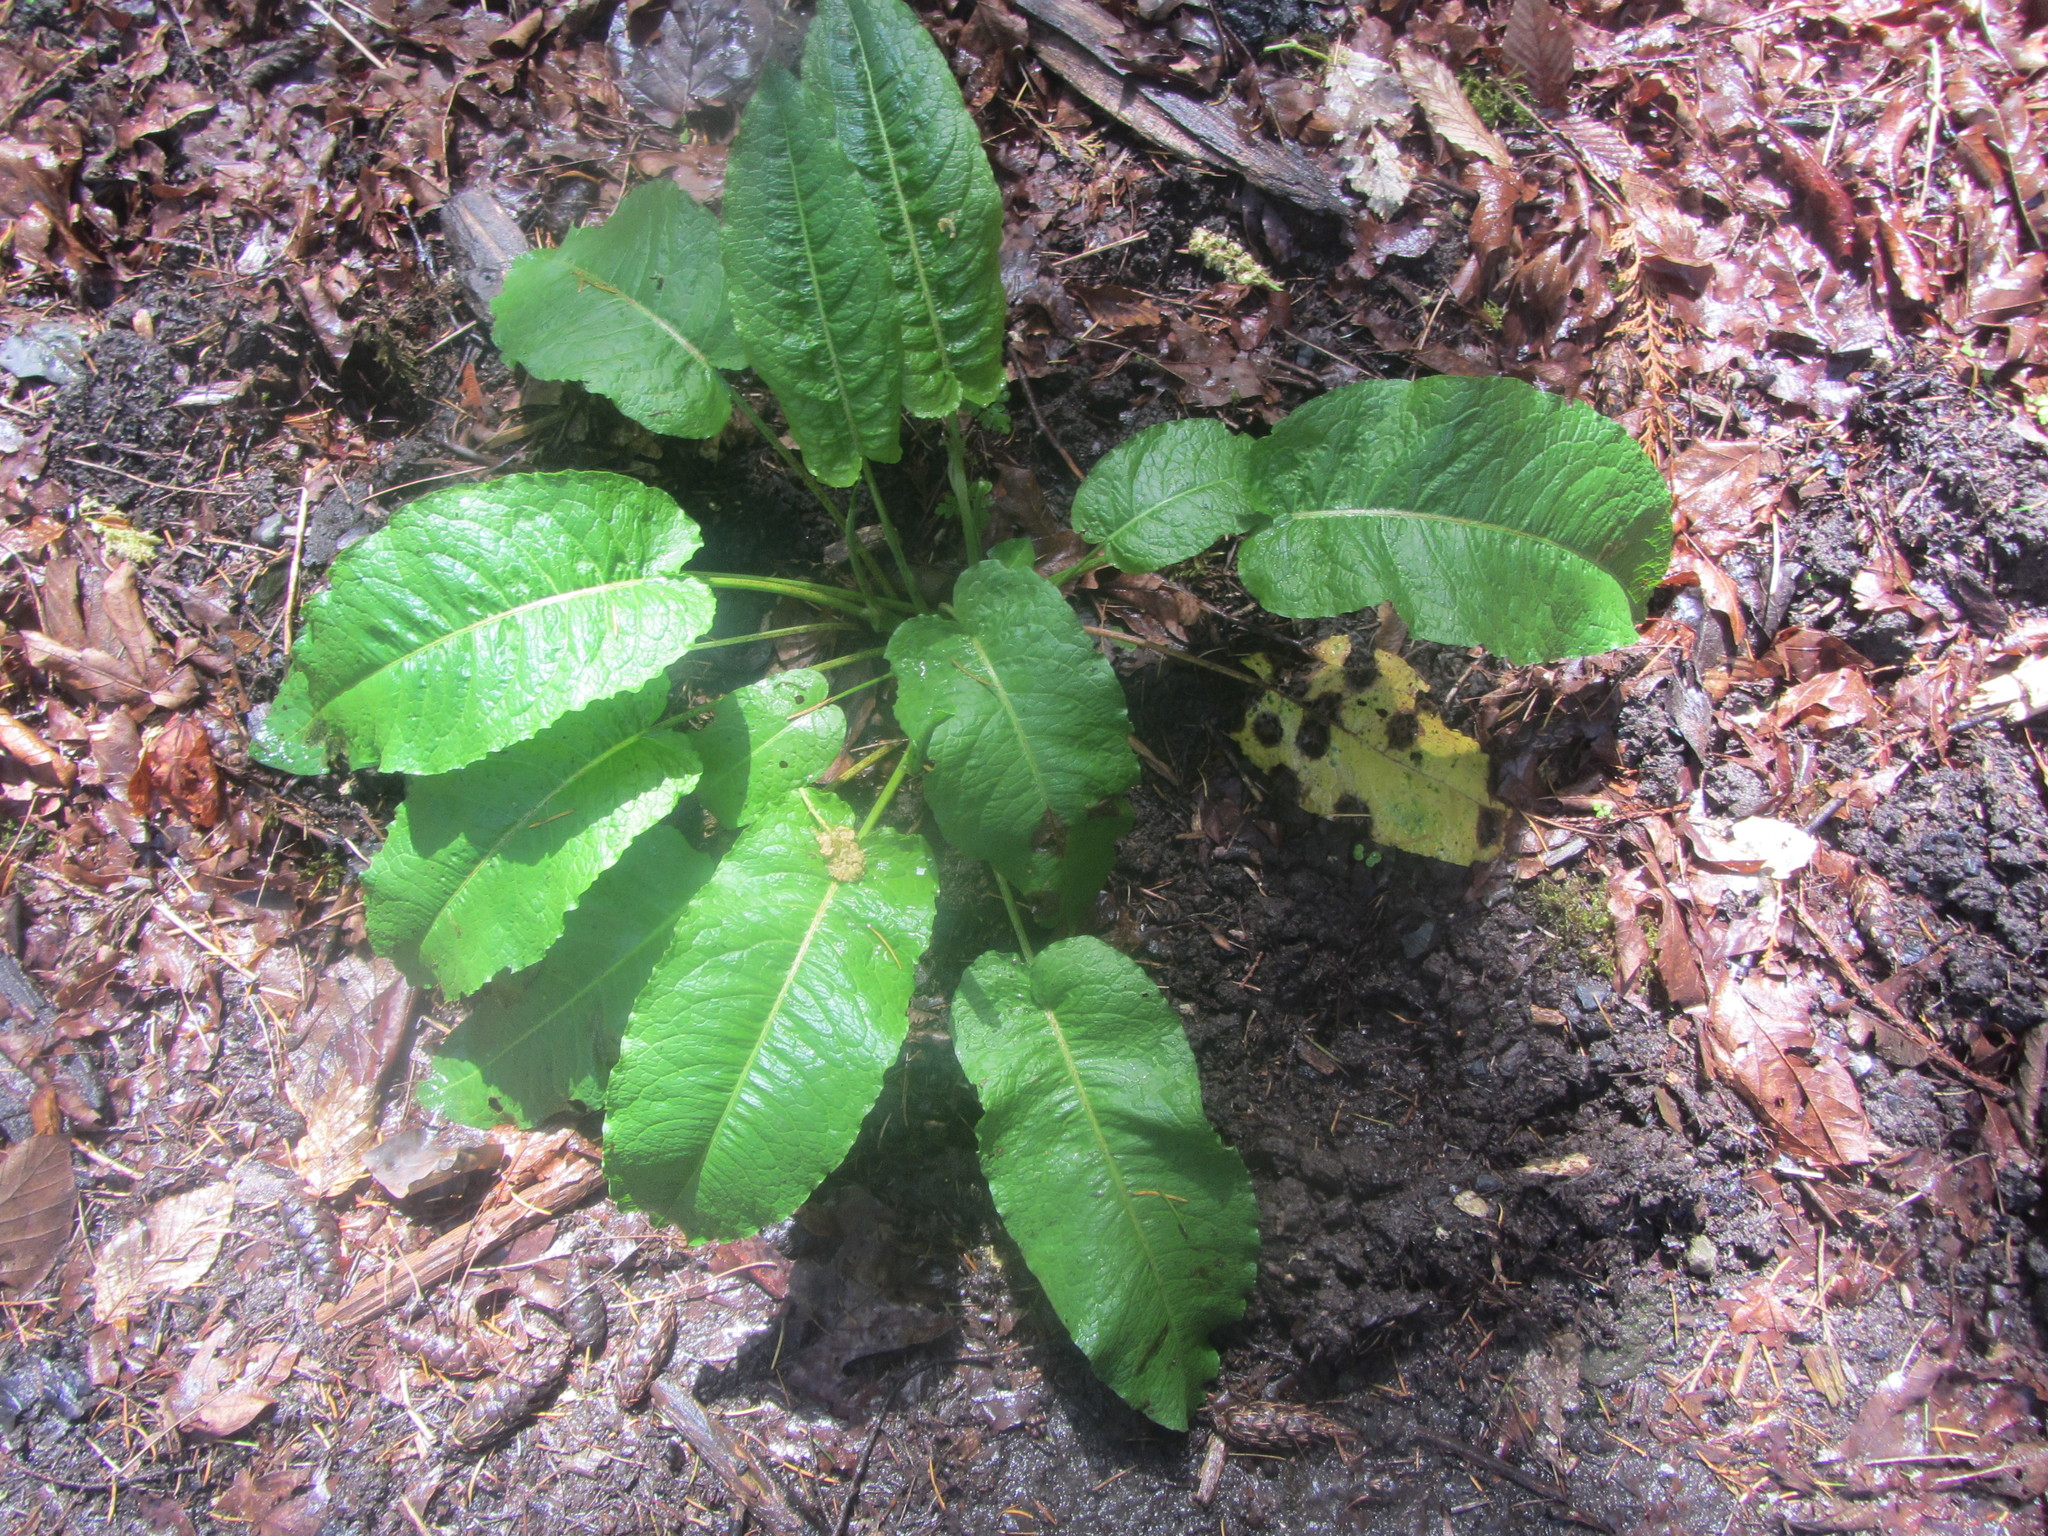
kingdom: Plantae
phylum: Tracheophyta
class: Magnoliopsida
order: Caryophyllales
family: Polygonaceae
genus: Rumex
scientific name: Rumex obtusifolius
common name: Bitter dock
